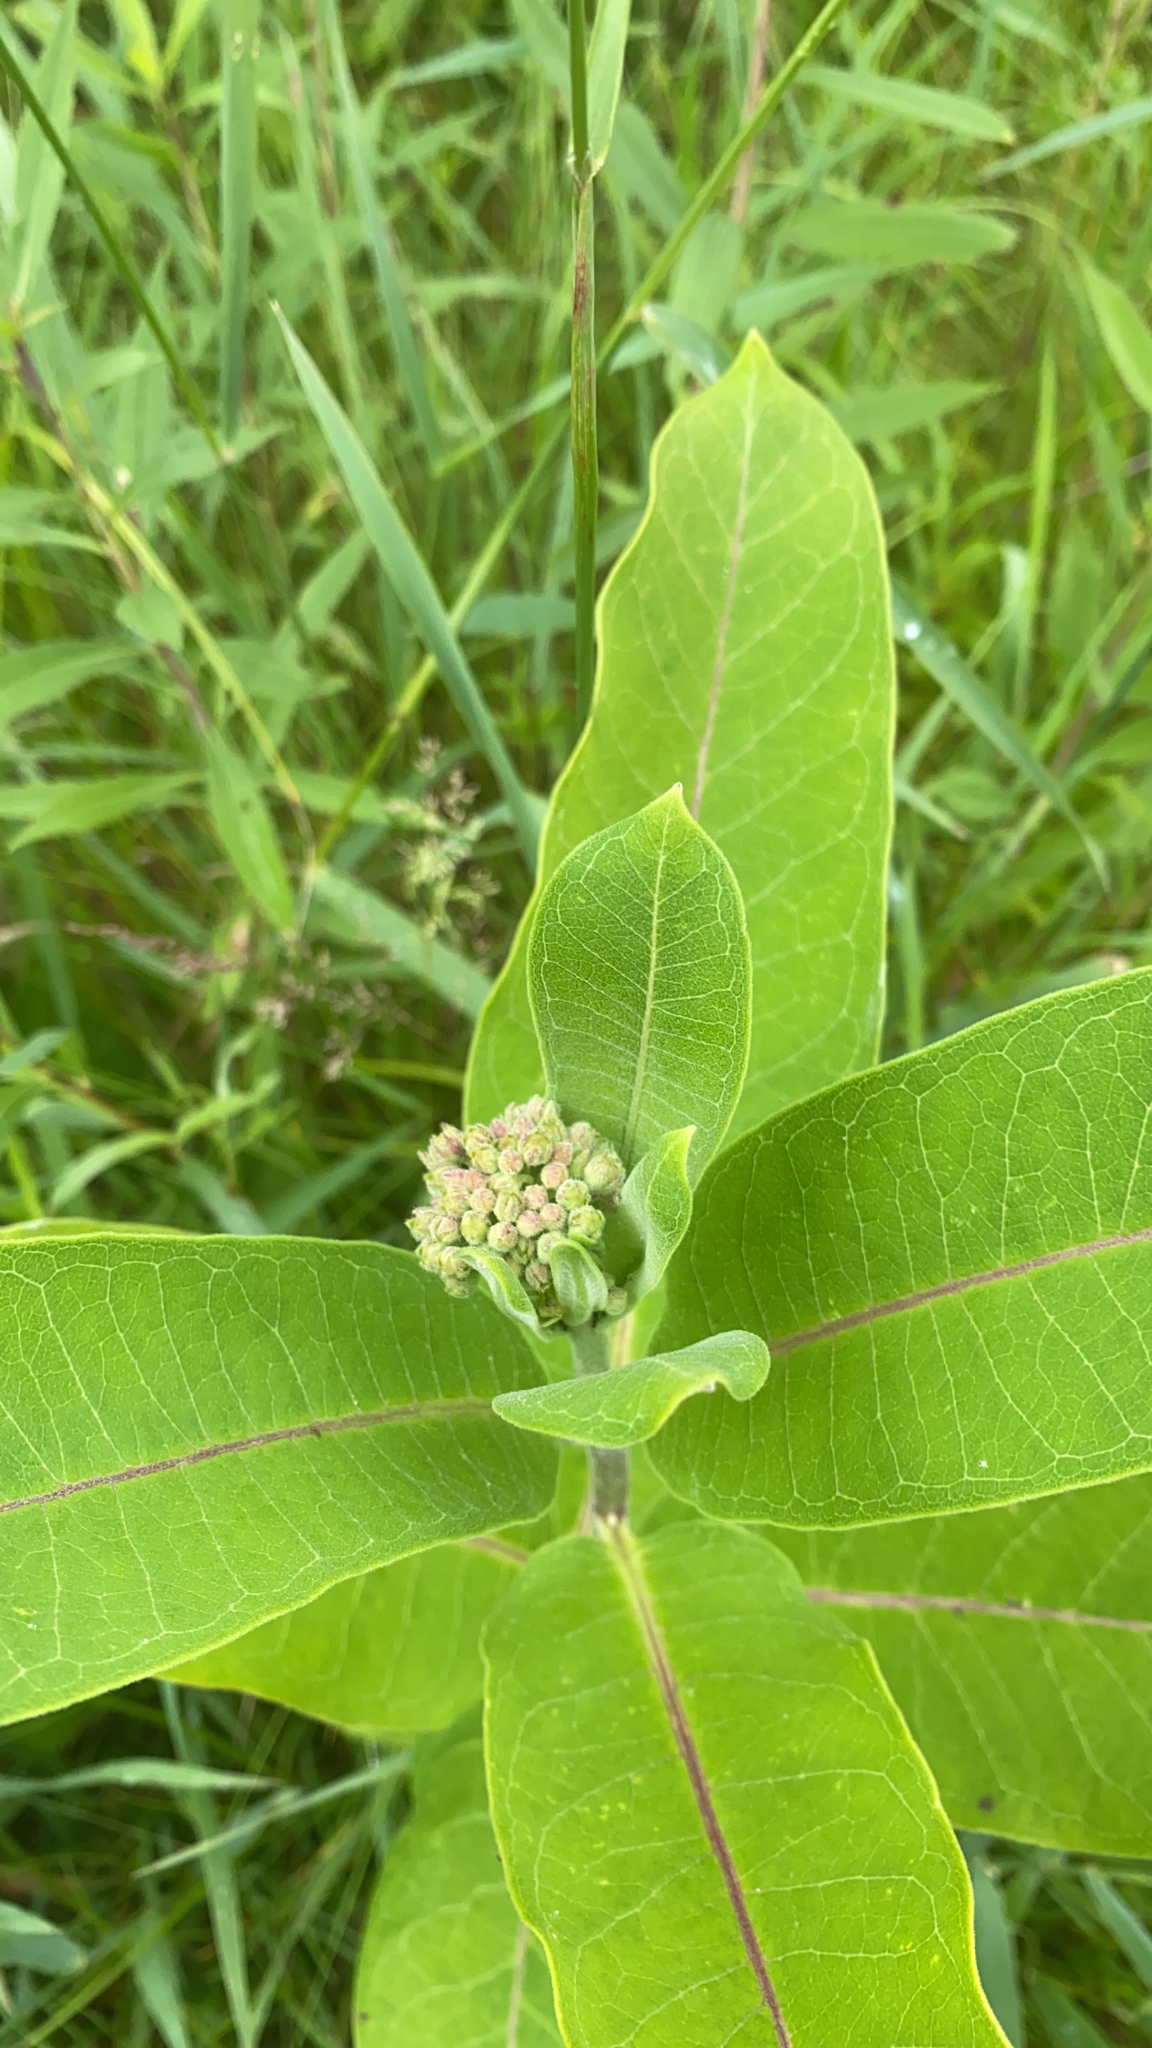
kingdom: Plantae
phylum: Tracheophyta
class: Magnoliopsida
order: Gentianales
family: Apocynaceae
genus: Asclepias
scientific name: Asclepias syriaca
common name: Common milkweed
